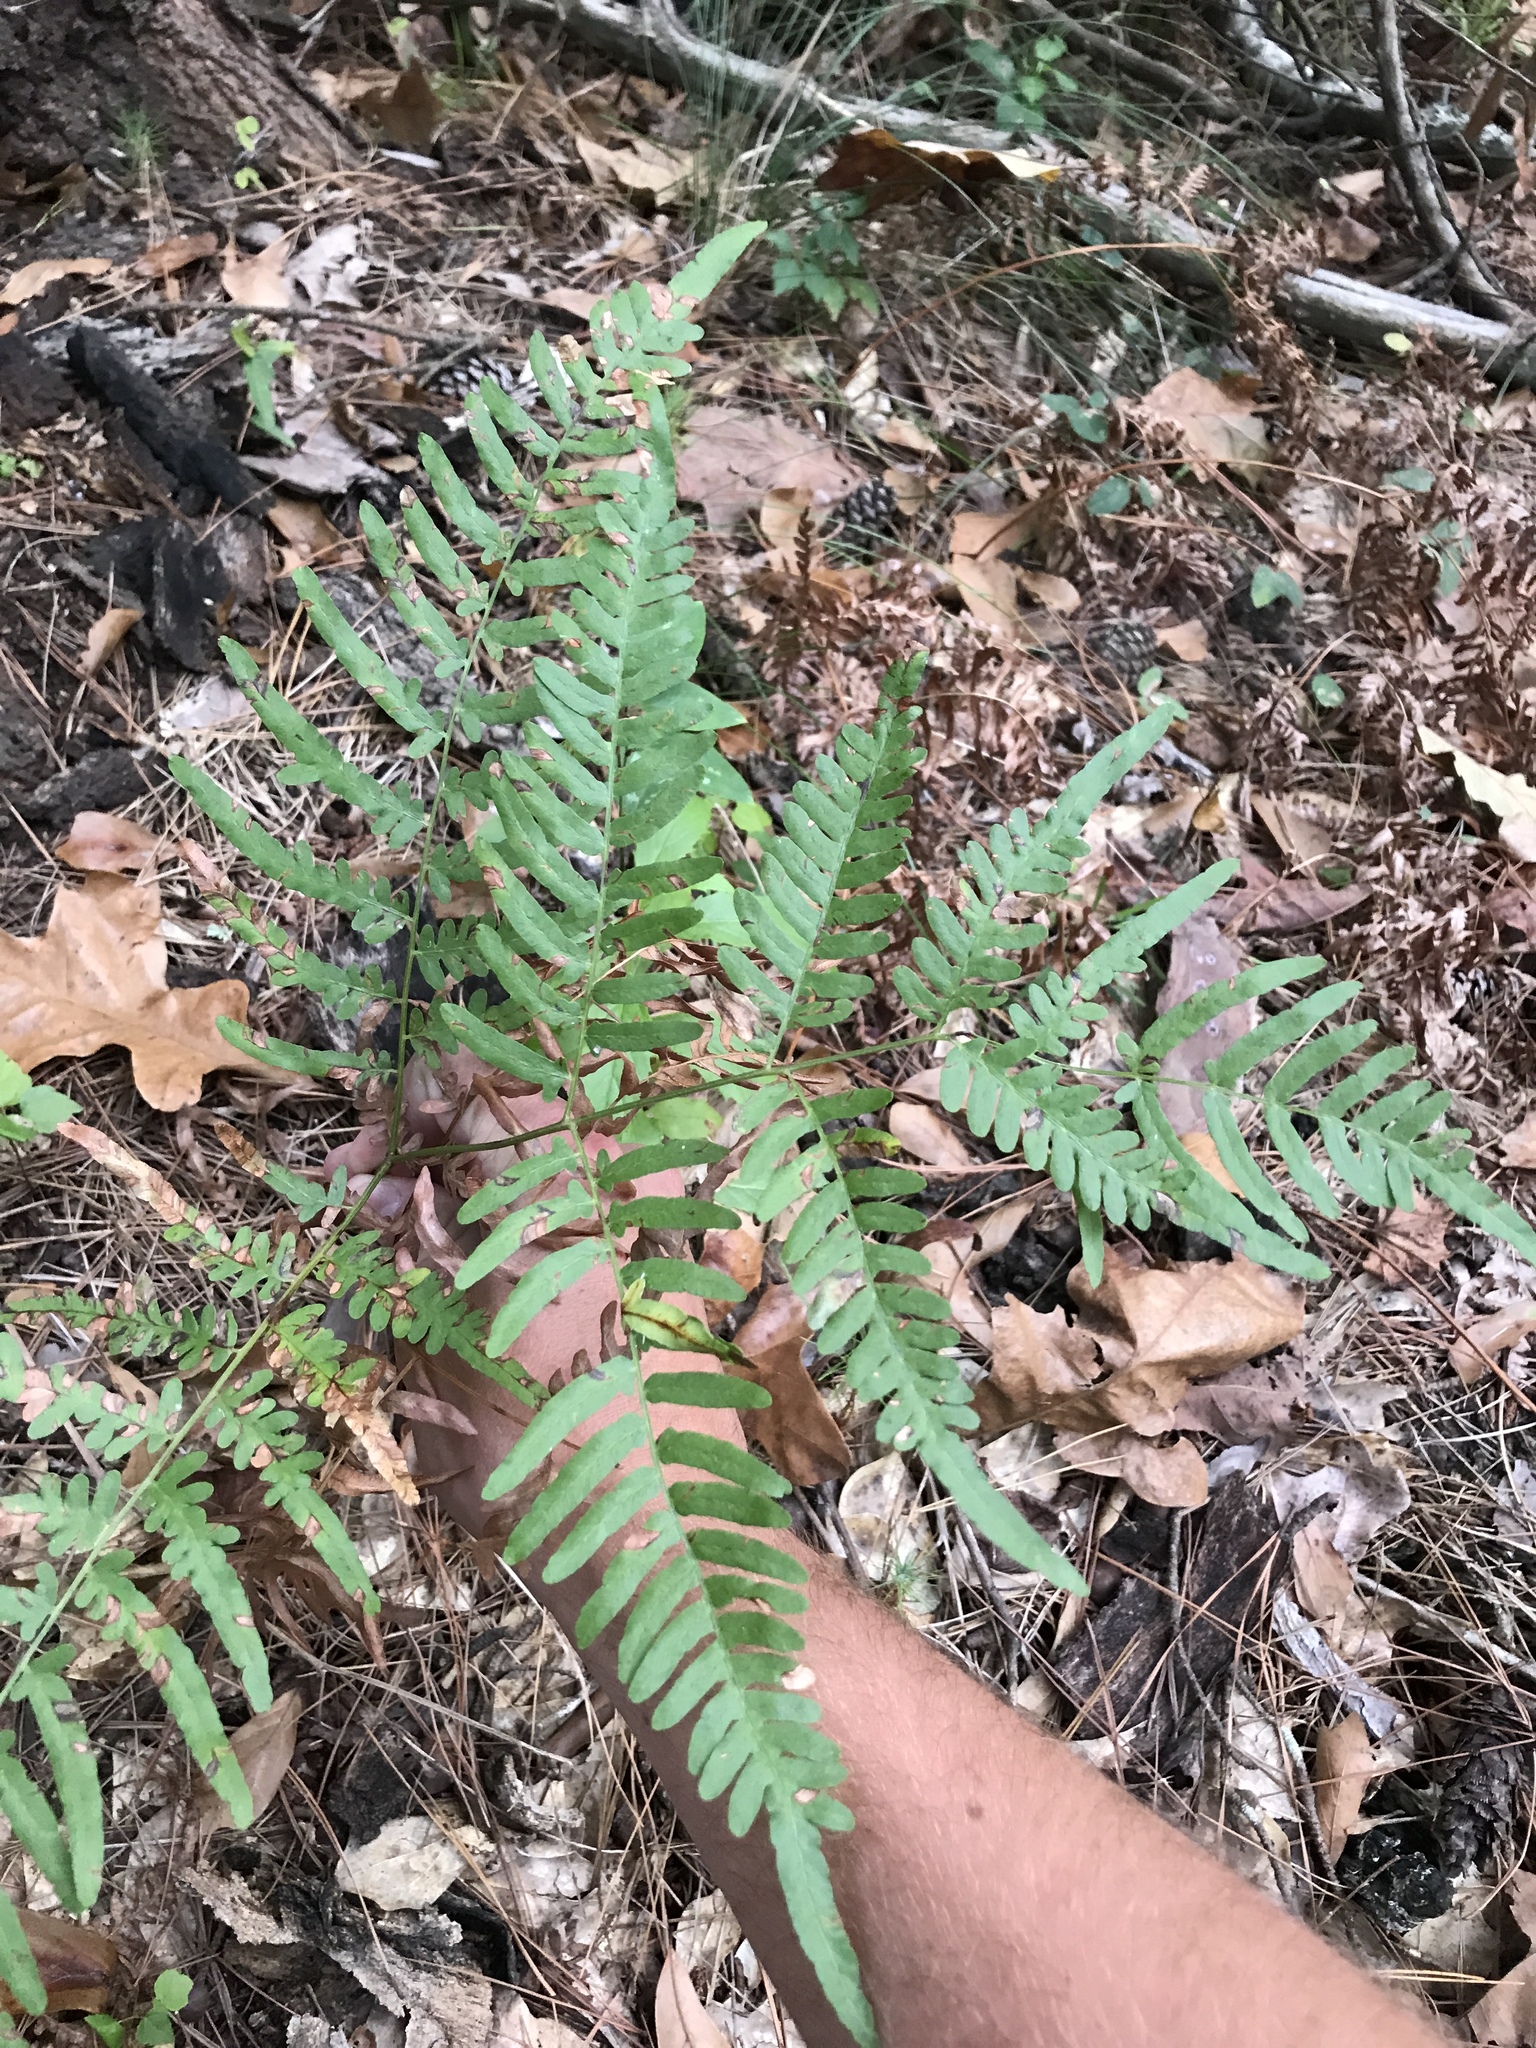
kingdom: Plantae
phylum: Tracheophyta
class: Polypodiopsida
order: Polypodiales
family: Dennstaedtiaceae
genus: Pteridium
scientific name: Pteridium aquilinum
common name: Bracken
